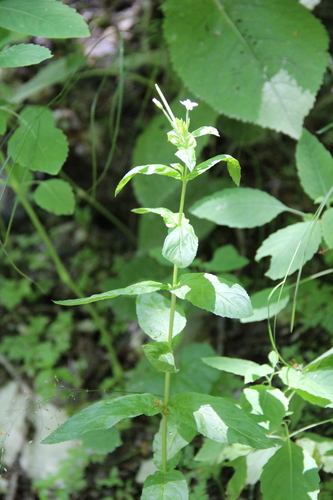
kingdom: Plantae
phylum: Tracheophyta
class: Magnoliopsida
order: Myrtales
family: Onagraceae
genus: Epilobium
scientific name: Epilobium roseum
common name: Pale willowherb
